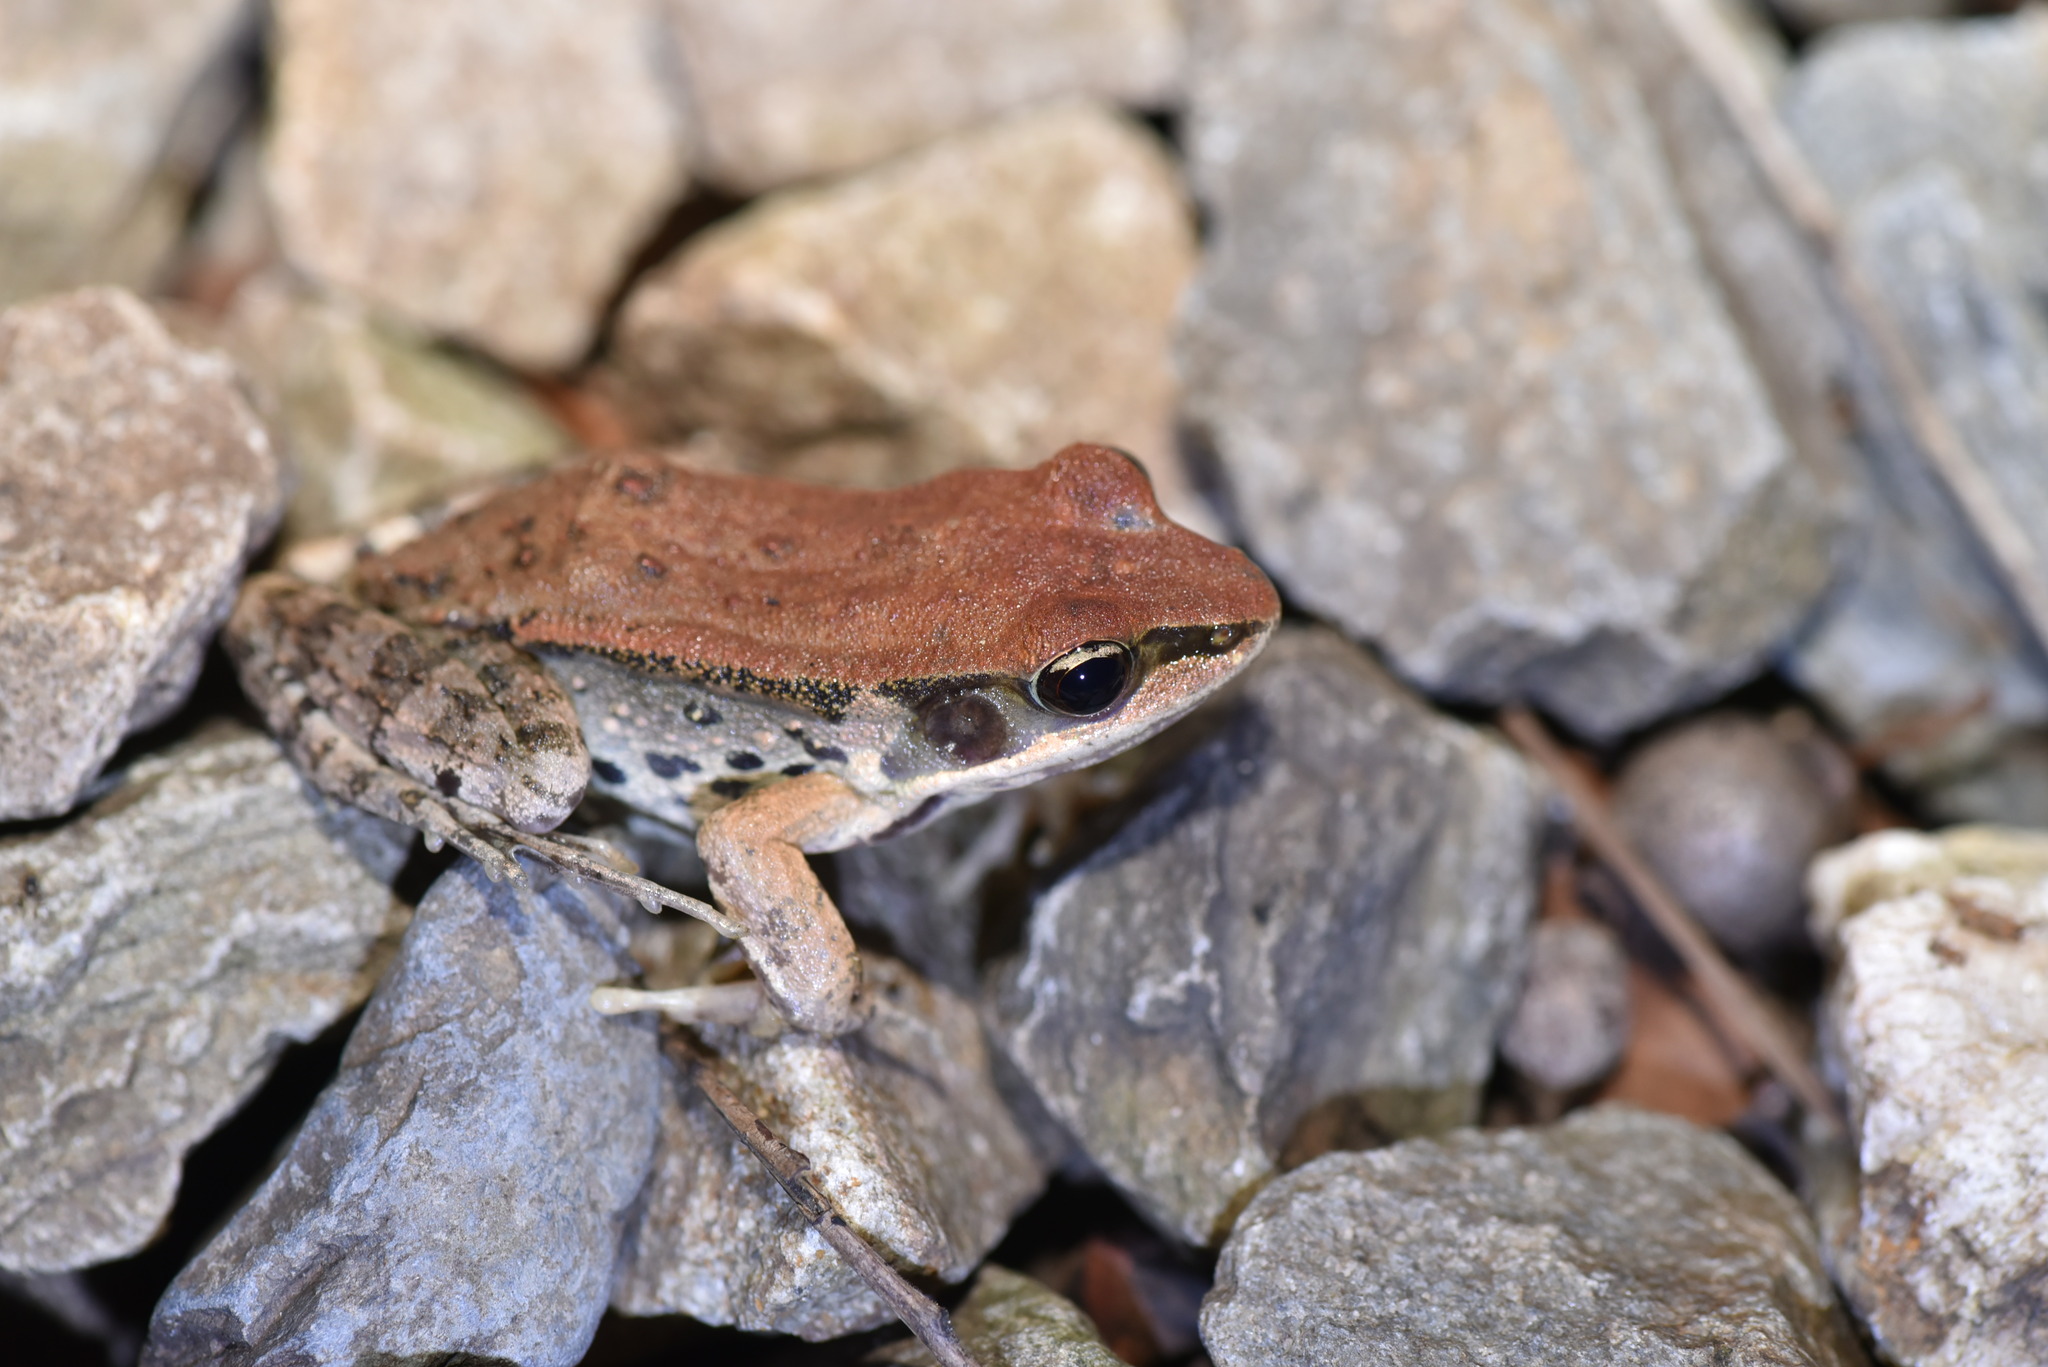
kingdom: Animalia
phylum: Chordata
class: Amphibia
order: Anura
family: Ranidae
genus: Hylarana
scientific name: Hylarana latouchii
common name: Broad-folded frog
